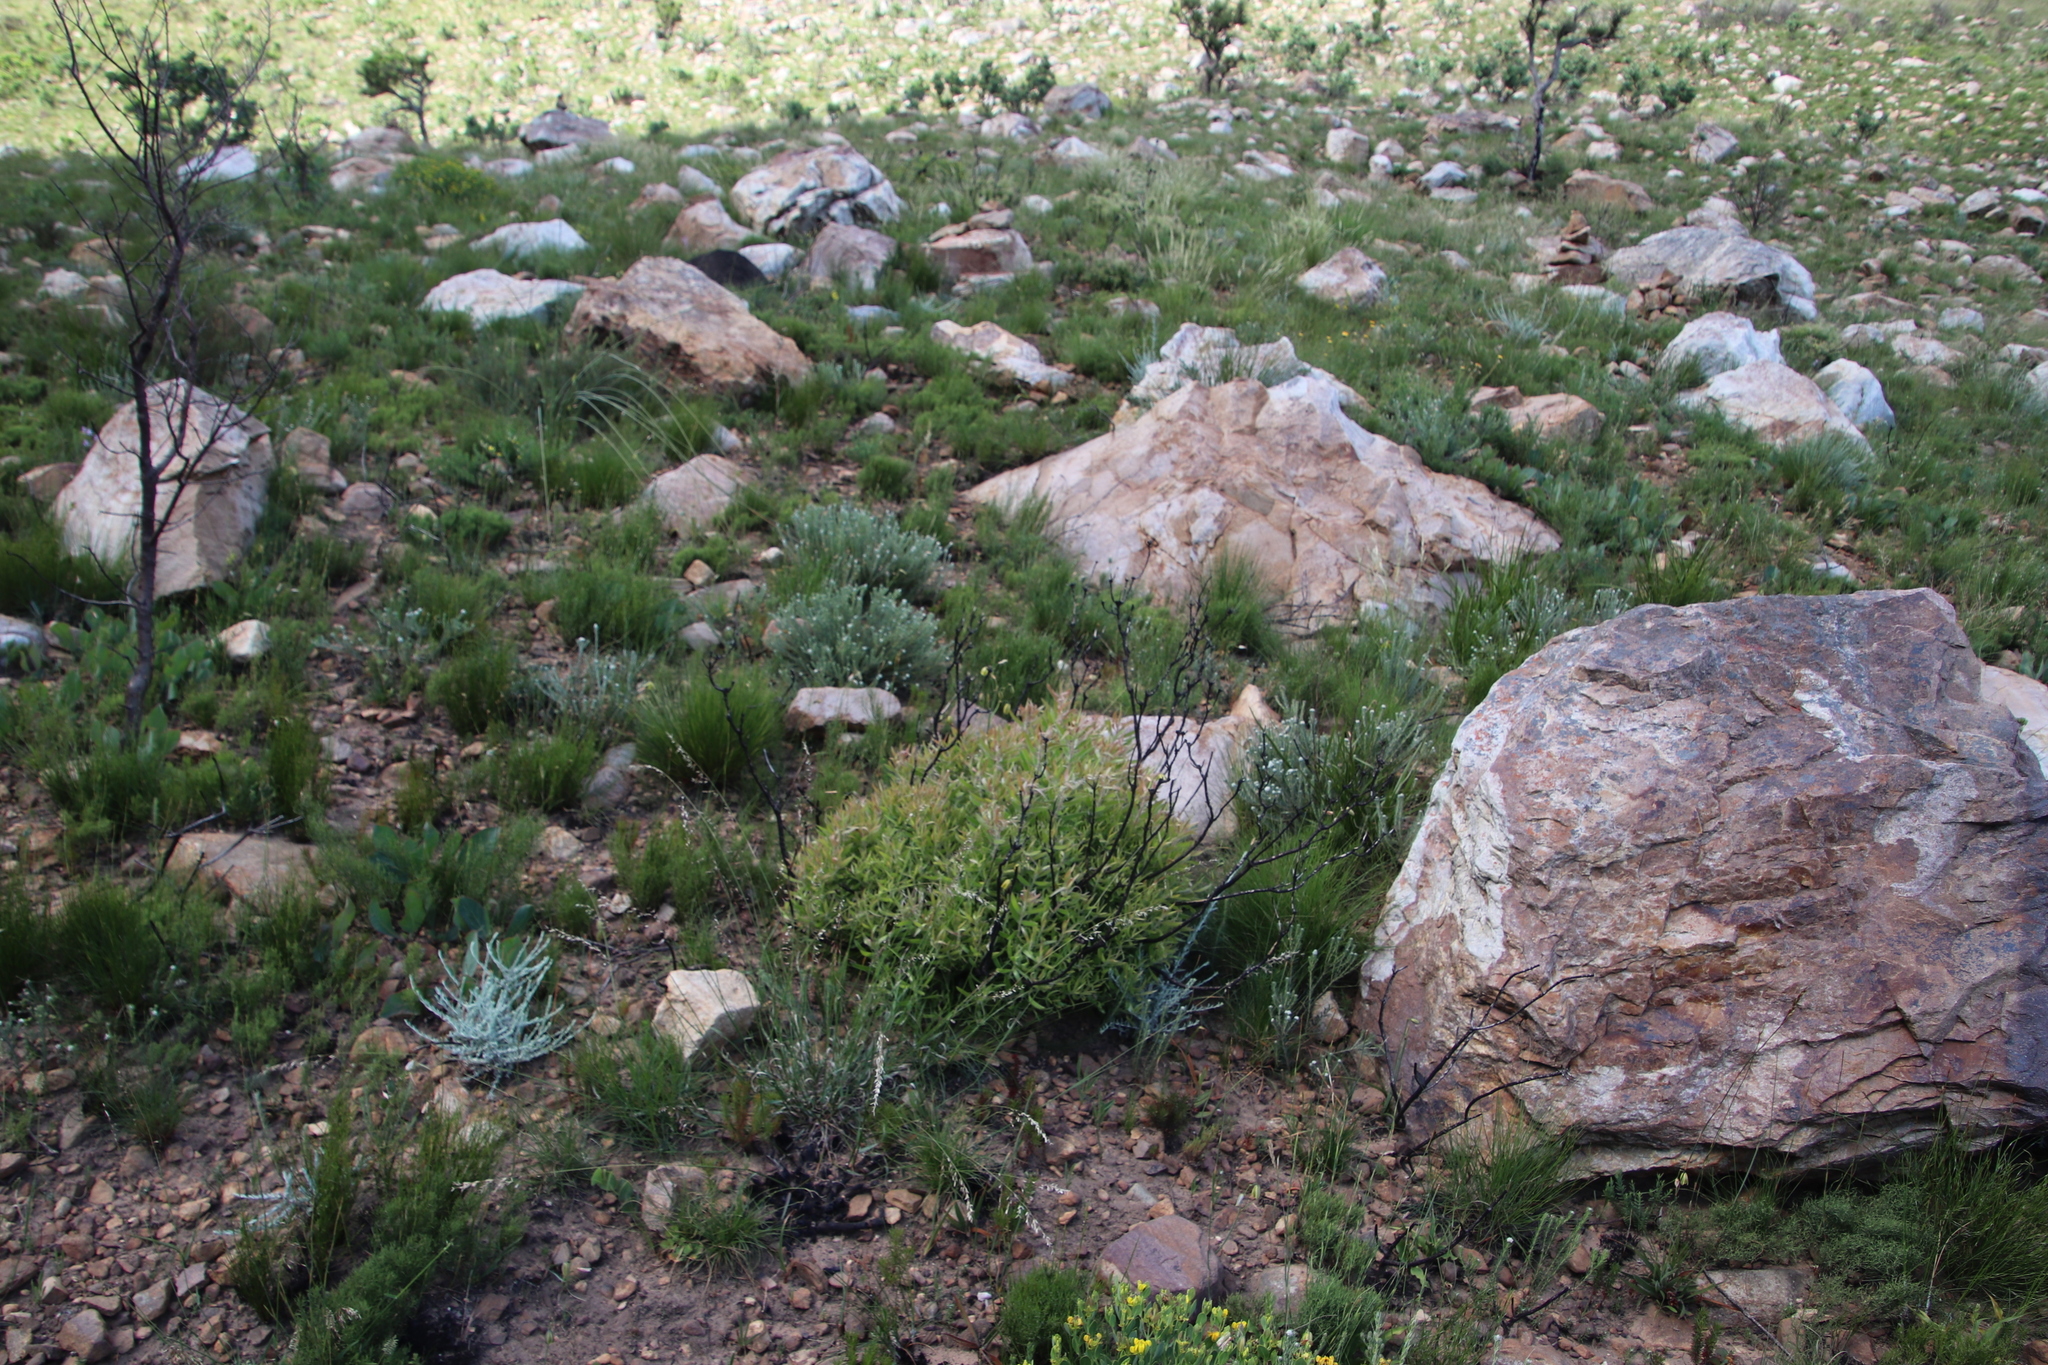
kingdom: Plantae
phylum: Tracheophyta
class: Magnoliopsida
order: Proteales
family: Proteaceae
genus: Leucadendron
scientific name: Leucadendron spissifolium
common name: Spear-leaf conebush
